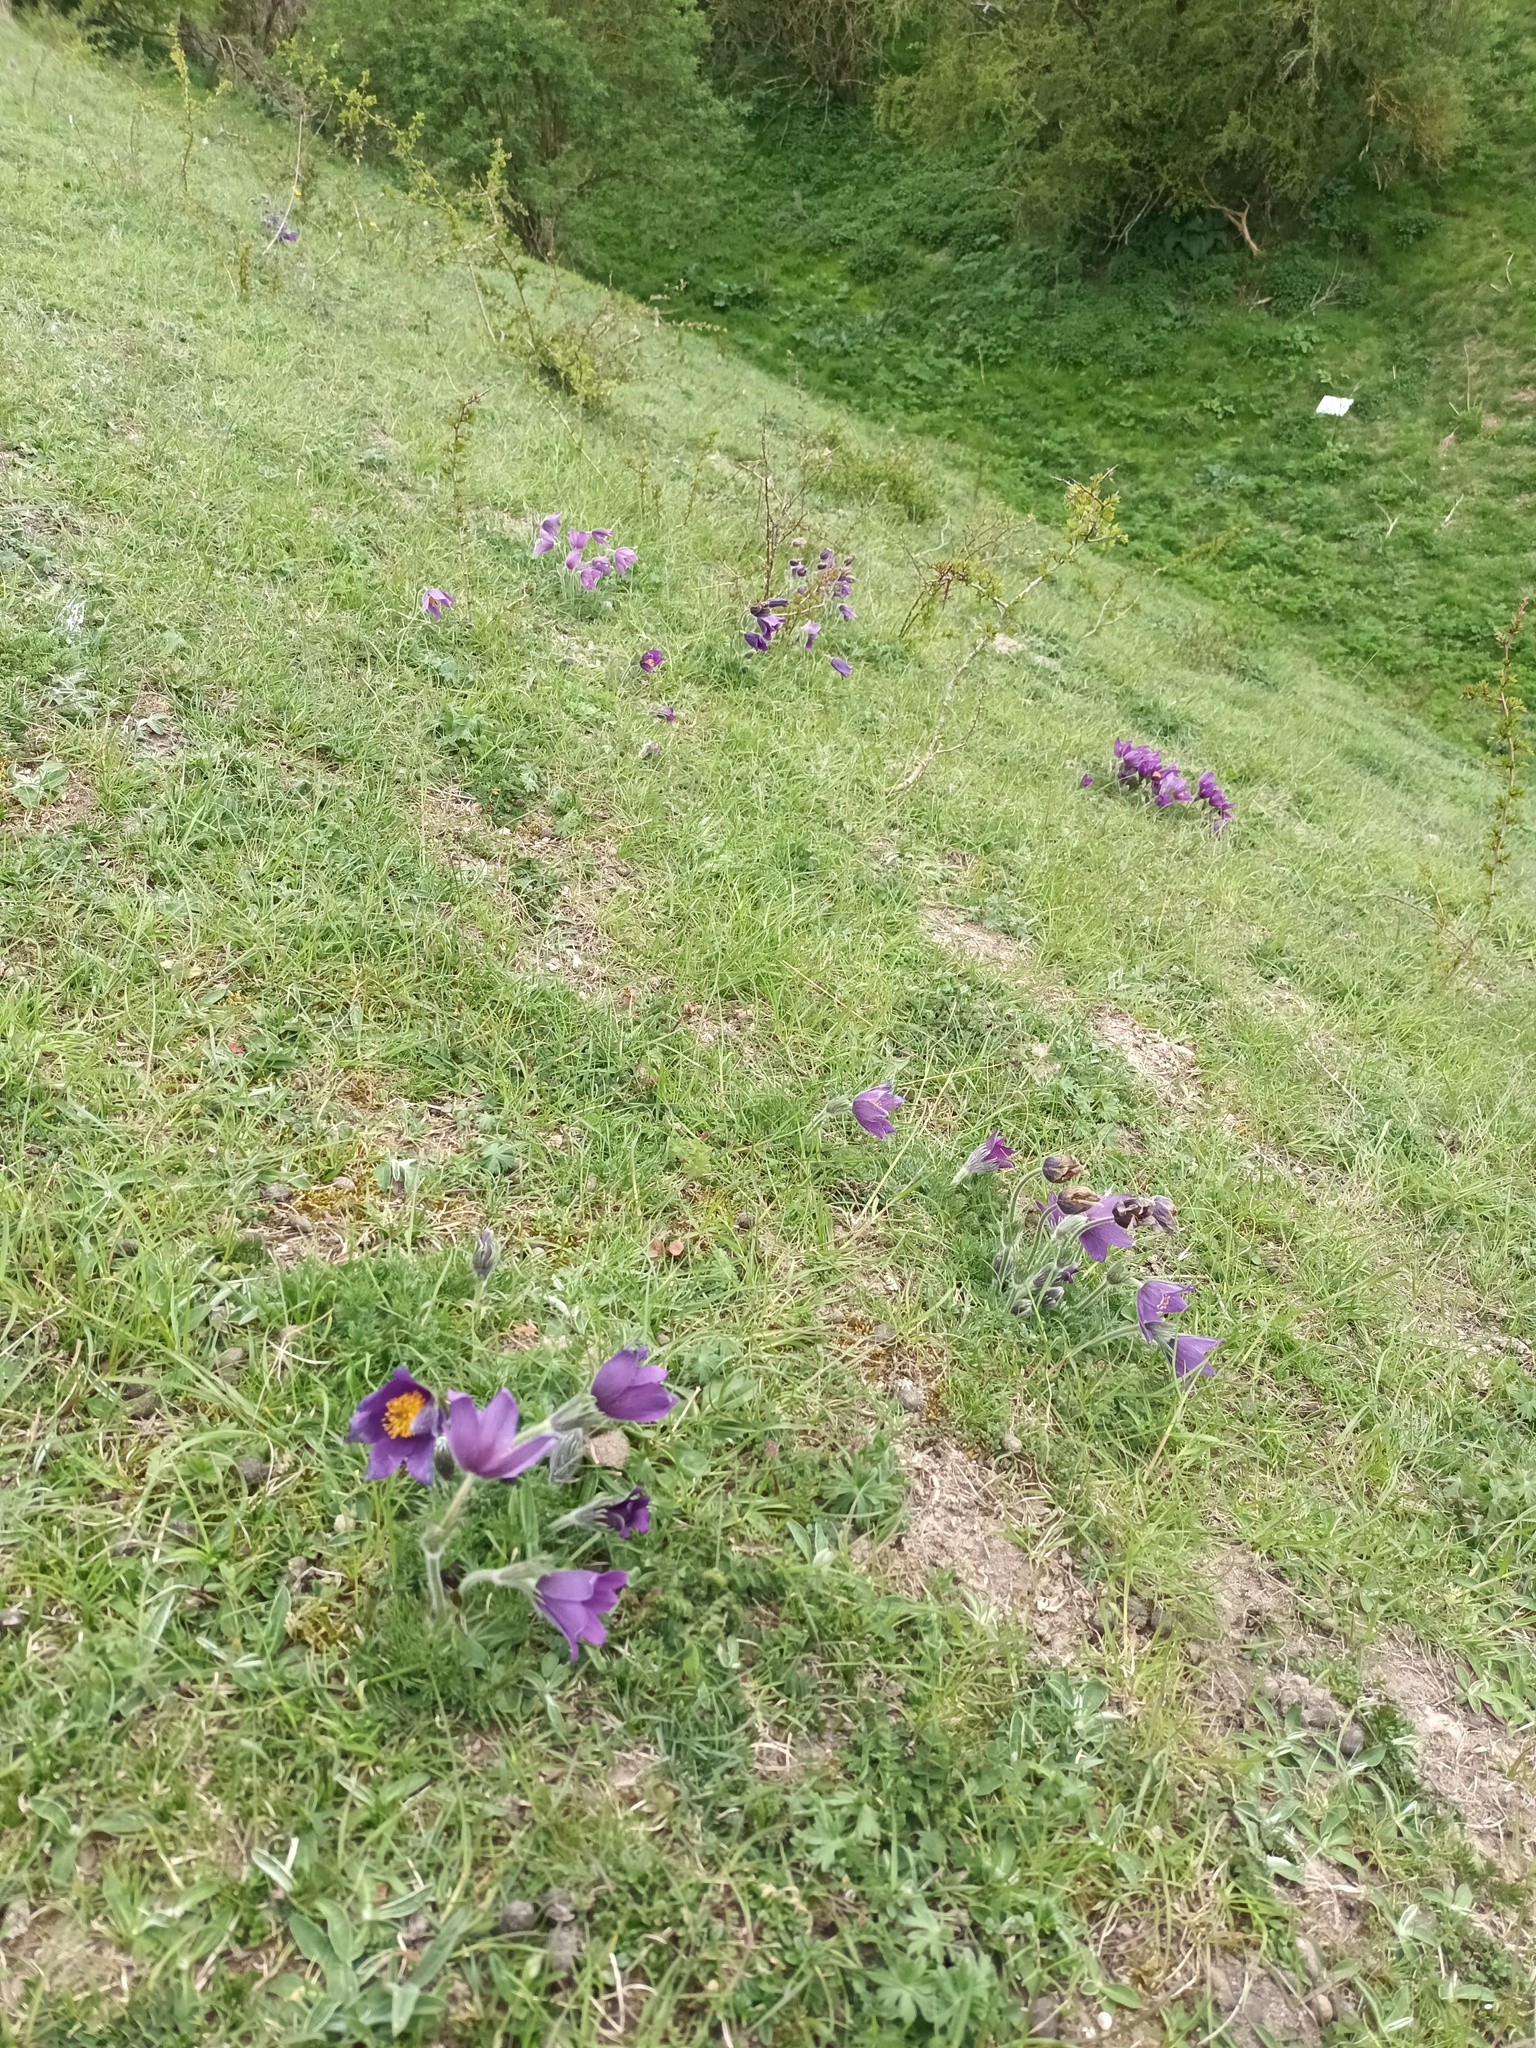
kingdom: Plantae
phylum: Tracheophyta
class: Magnoliopsida
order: Ranunculales
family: Ranunculaceae
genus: Pulsatilla
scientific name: Pulsatilla vulgaris
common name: Pasqueflower
